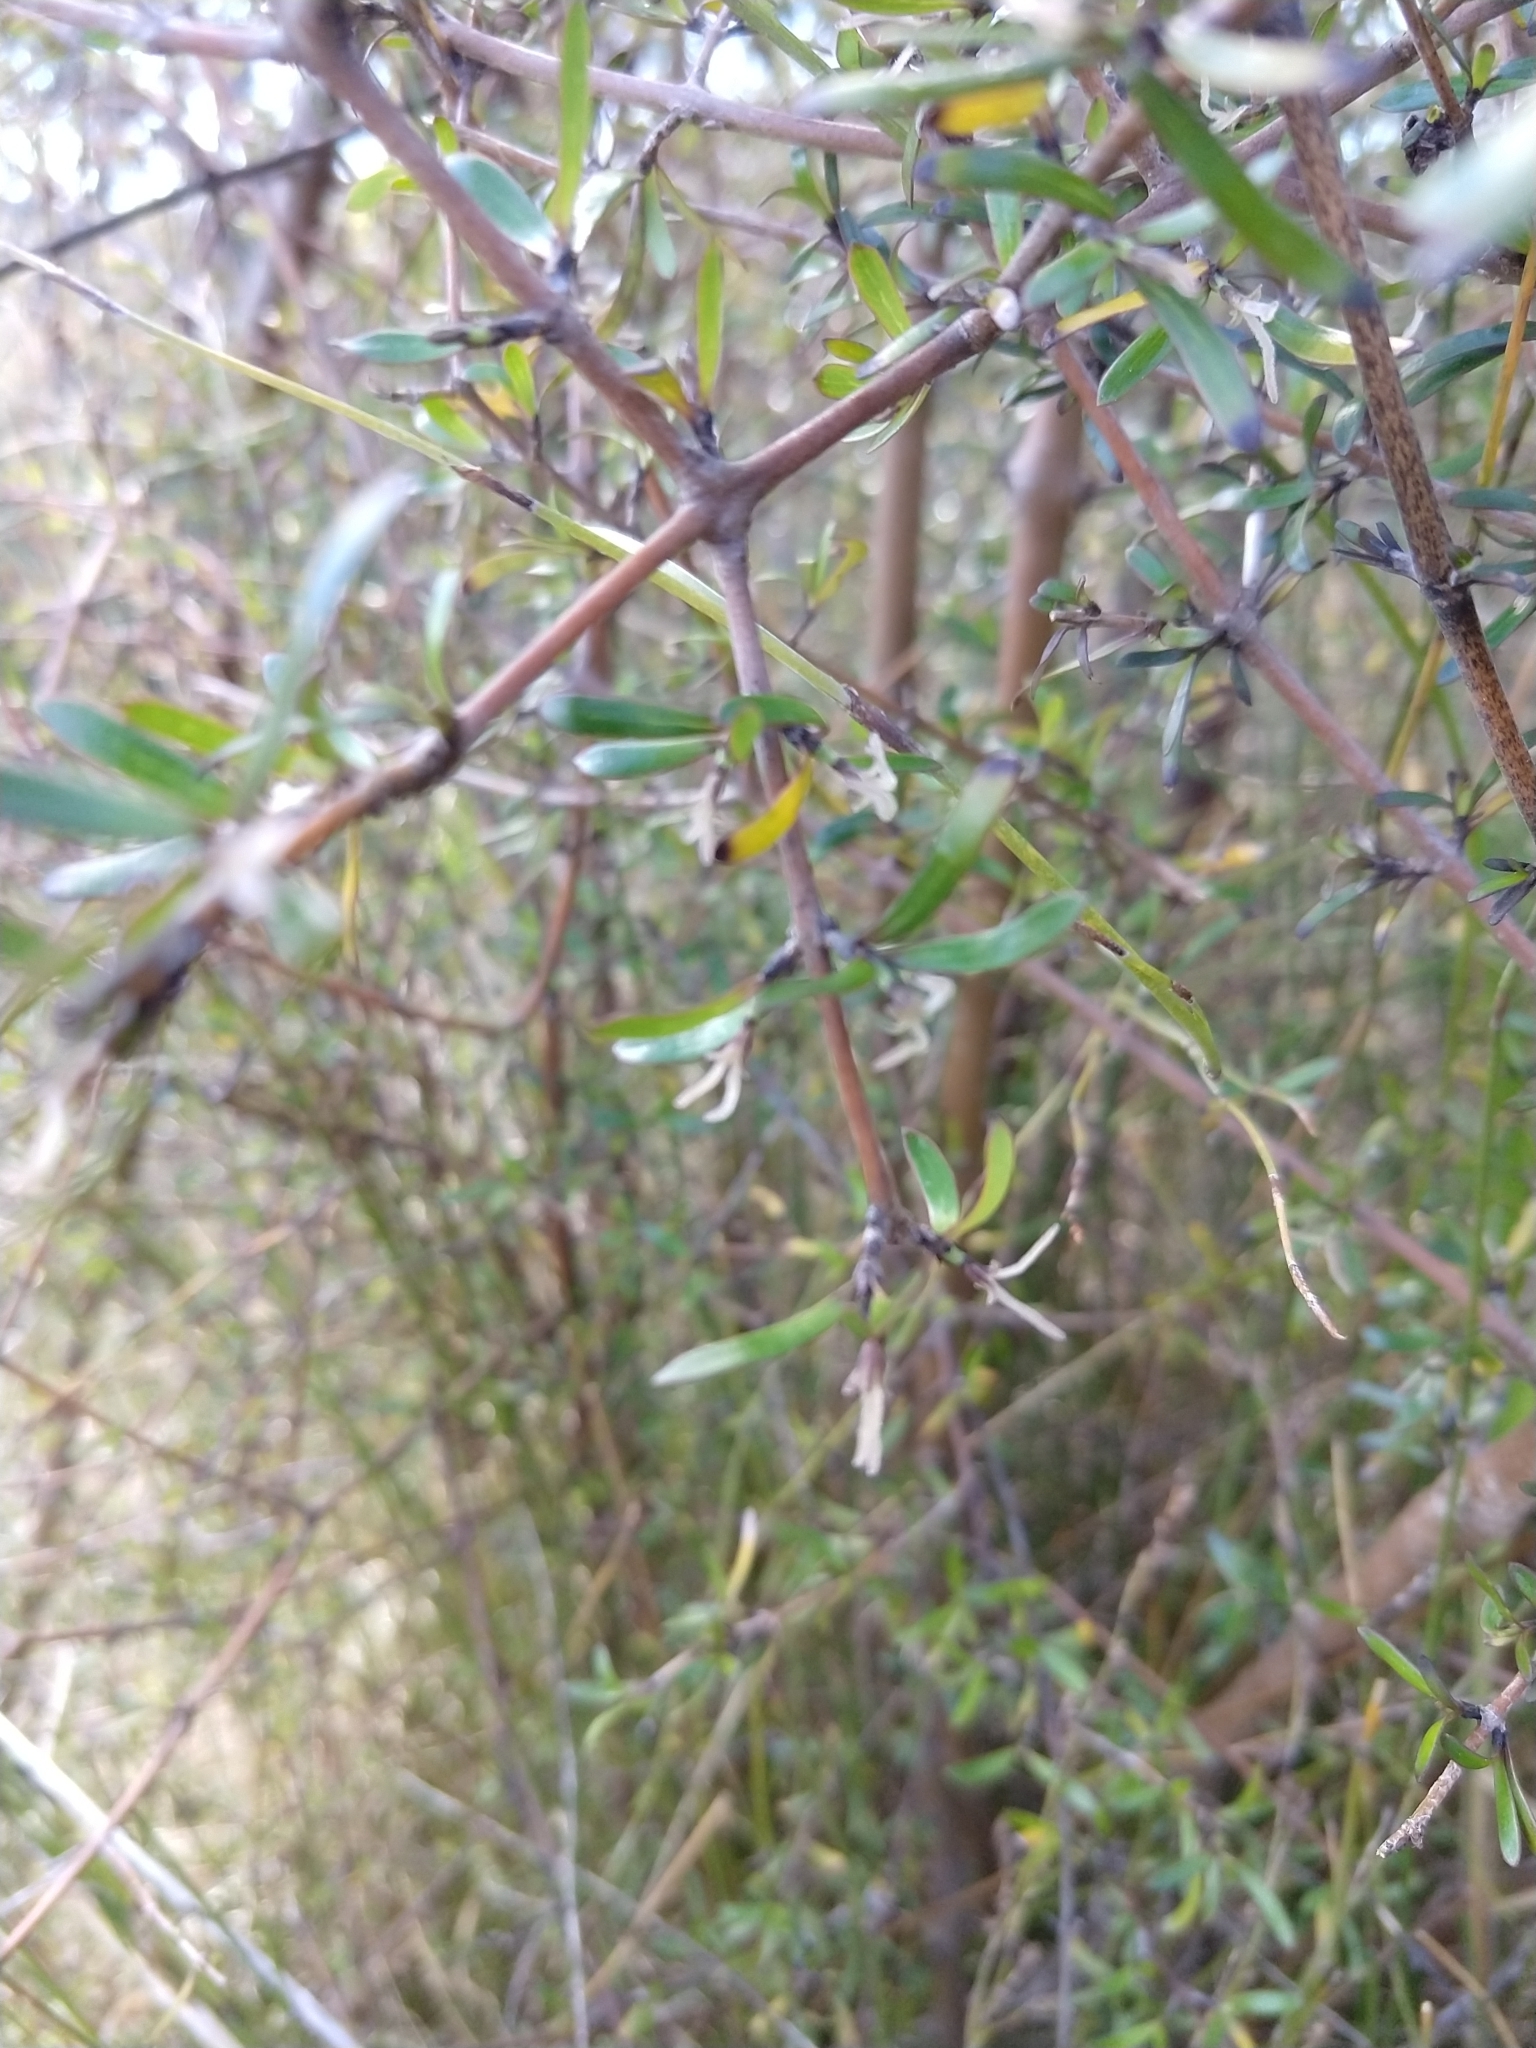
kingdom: Plantae
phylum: Tracheophyta
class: Magnoliopsida
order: Gentianales
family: Rubiaceae
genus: Coprosma
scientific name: Coprosma propinqua
